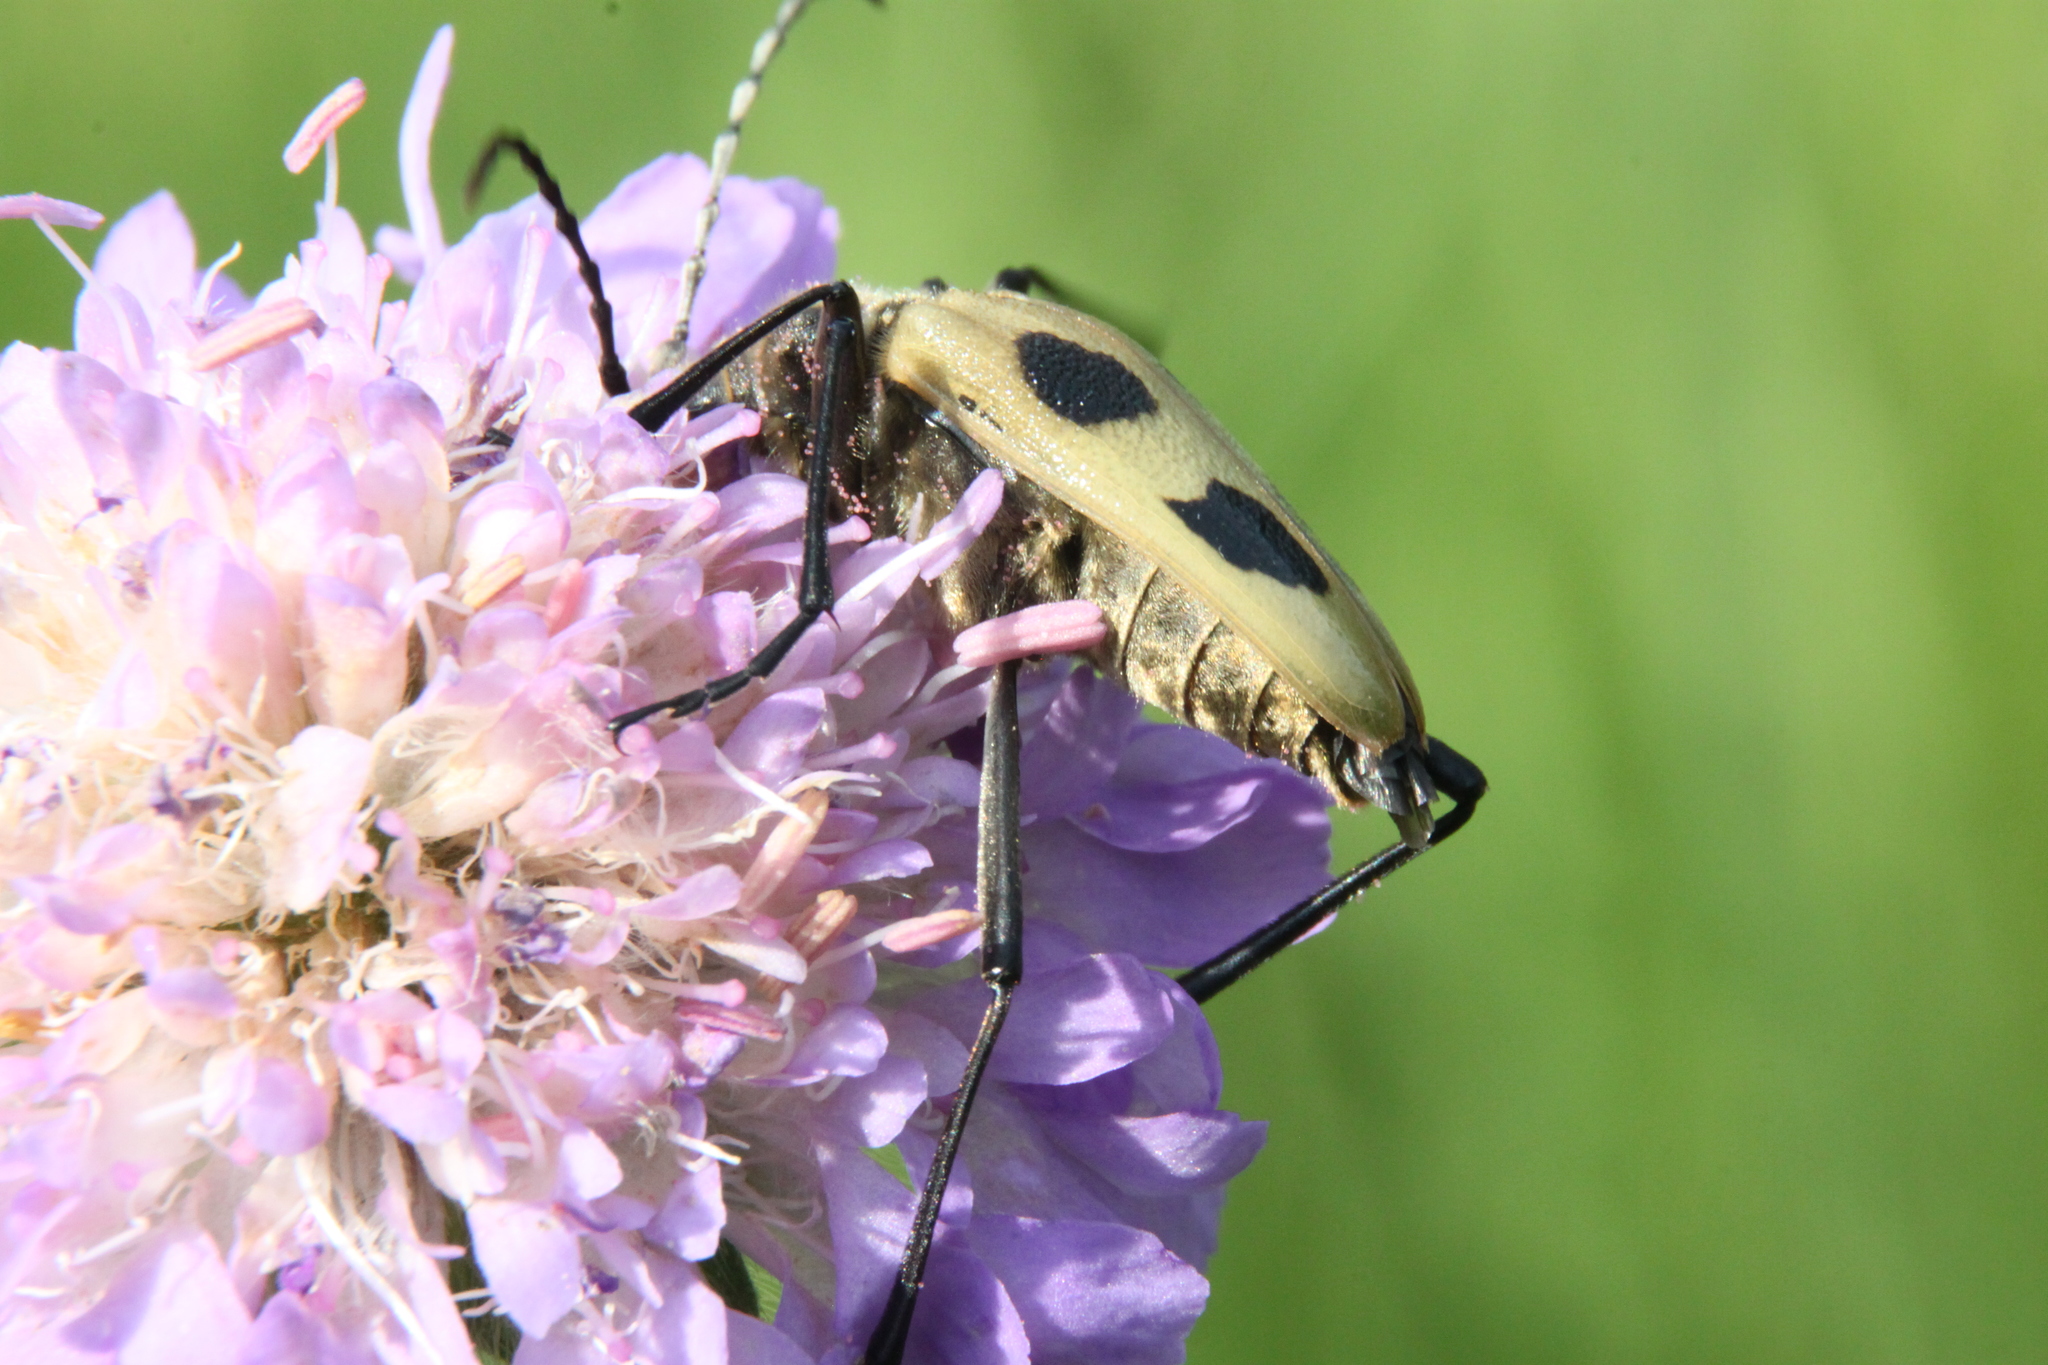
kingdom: Animalia
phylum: Arthropoda
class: Insecta
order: Coleoptera
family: Cerambycidae
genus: Pachyta
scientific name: Pachyta quadrimaculata
